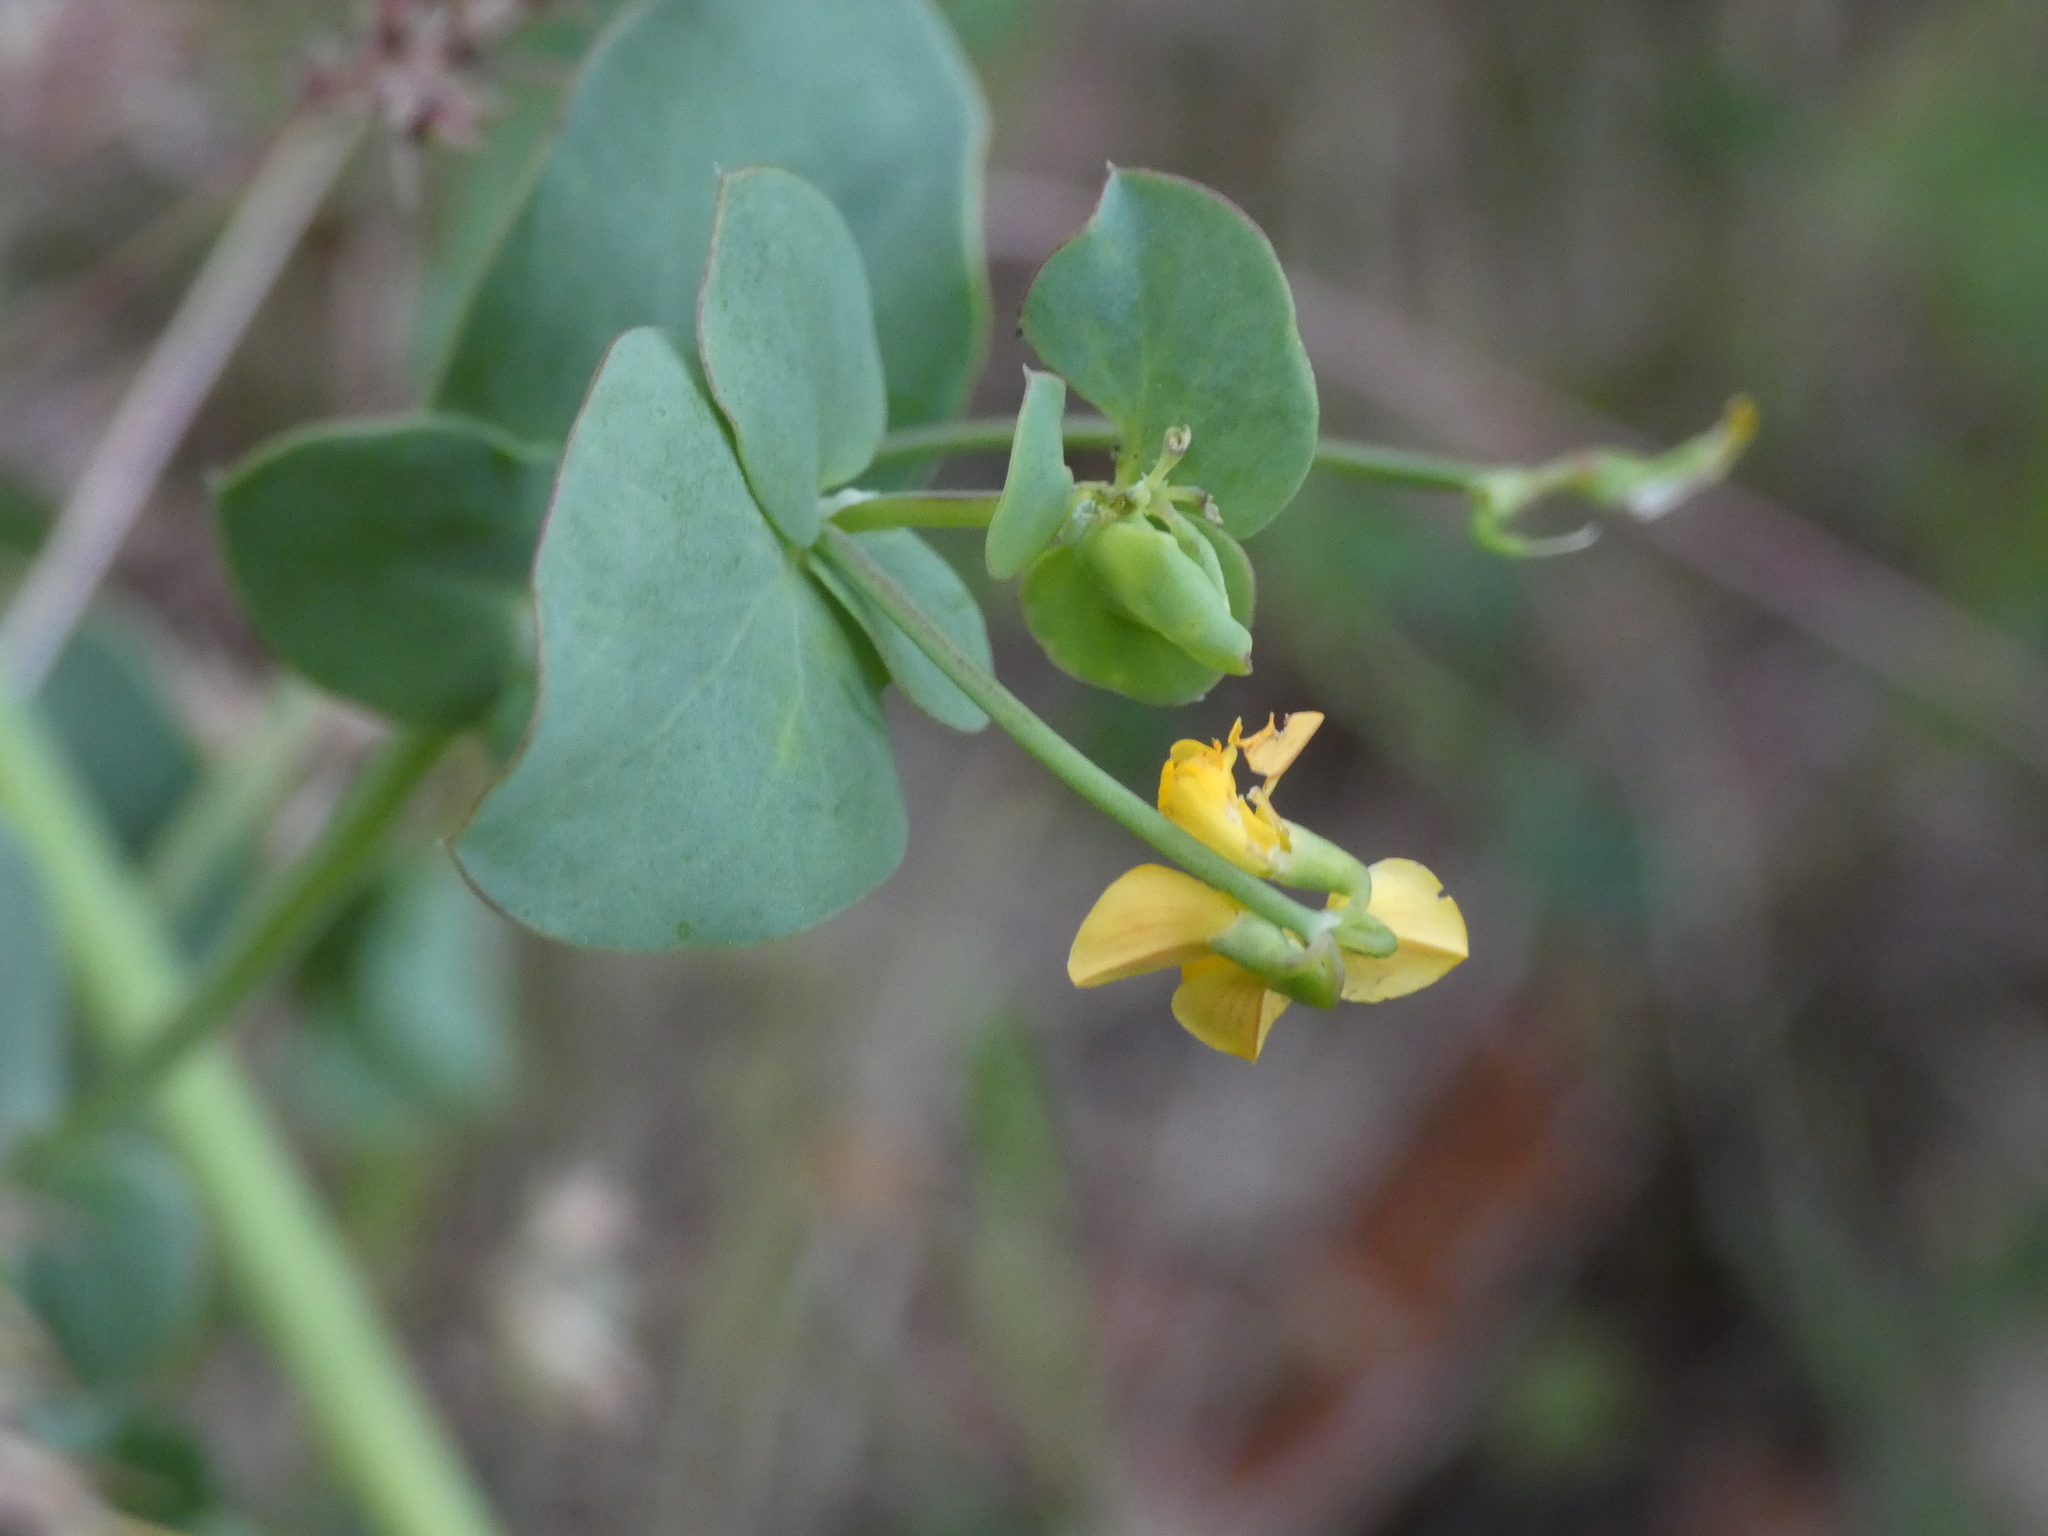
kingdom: Plantae
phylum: Tracheophyta
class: Magnoliopsida
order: Fabales
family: Fabaceae
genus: Coronilla
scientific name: Coronilla scorpioides
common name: Annual scorpion-vetch
